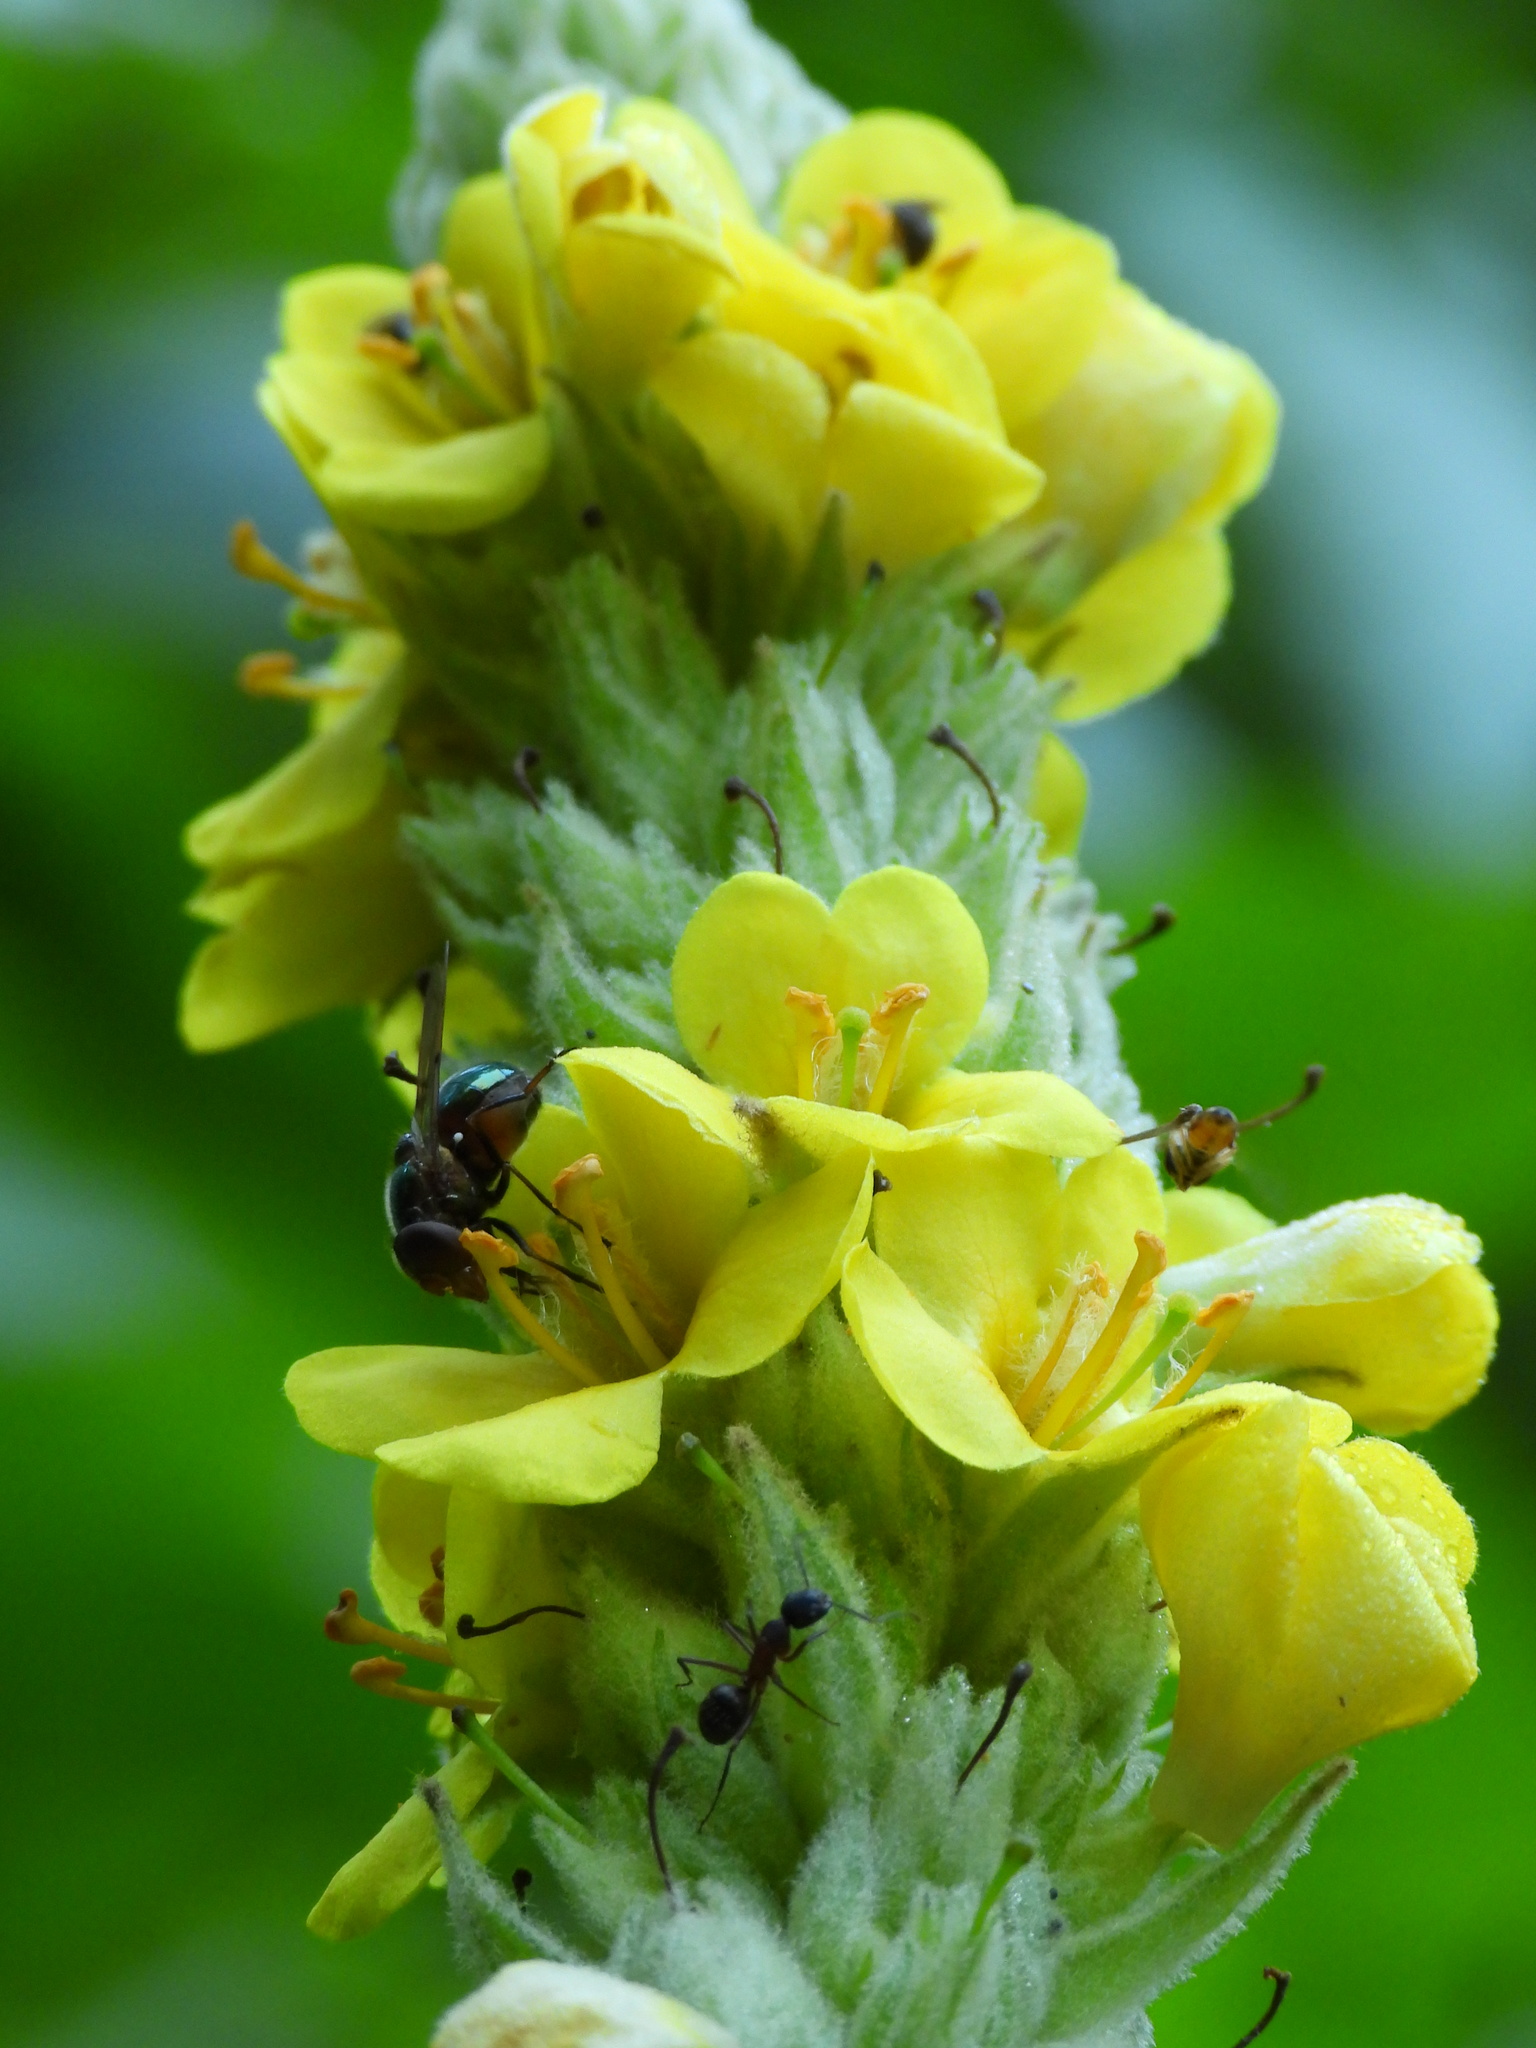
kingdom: Plantae
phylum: Tracheophyta
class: Magnoliopsida
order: Lamiales
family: Scrophulariaceae
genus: Verbascum
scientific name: Verbascum thapsus
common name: Common mullein
